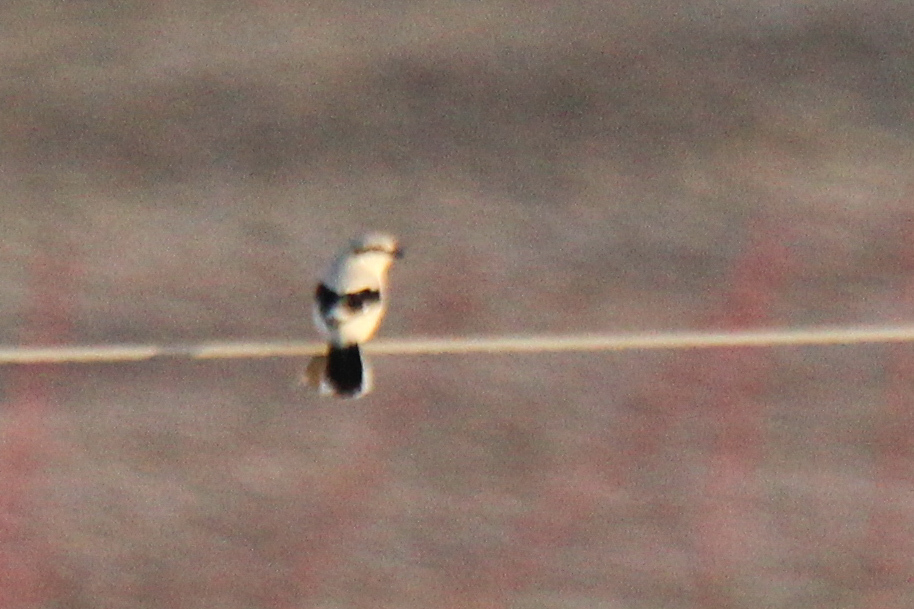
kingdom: Animalia
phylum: Chordata
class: Aves
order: Passeriformes
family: Laniidae
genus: Lanius
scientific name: Lanius excubitor
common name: Great grey shrike
